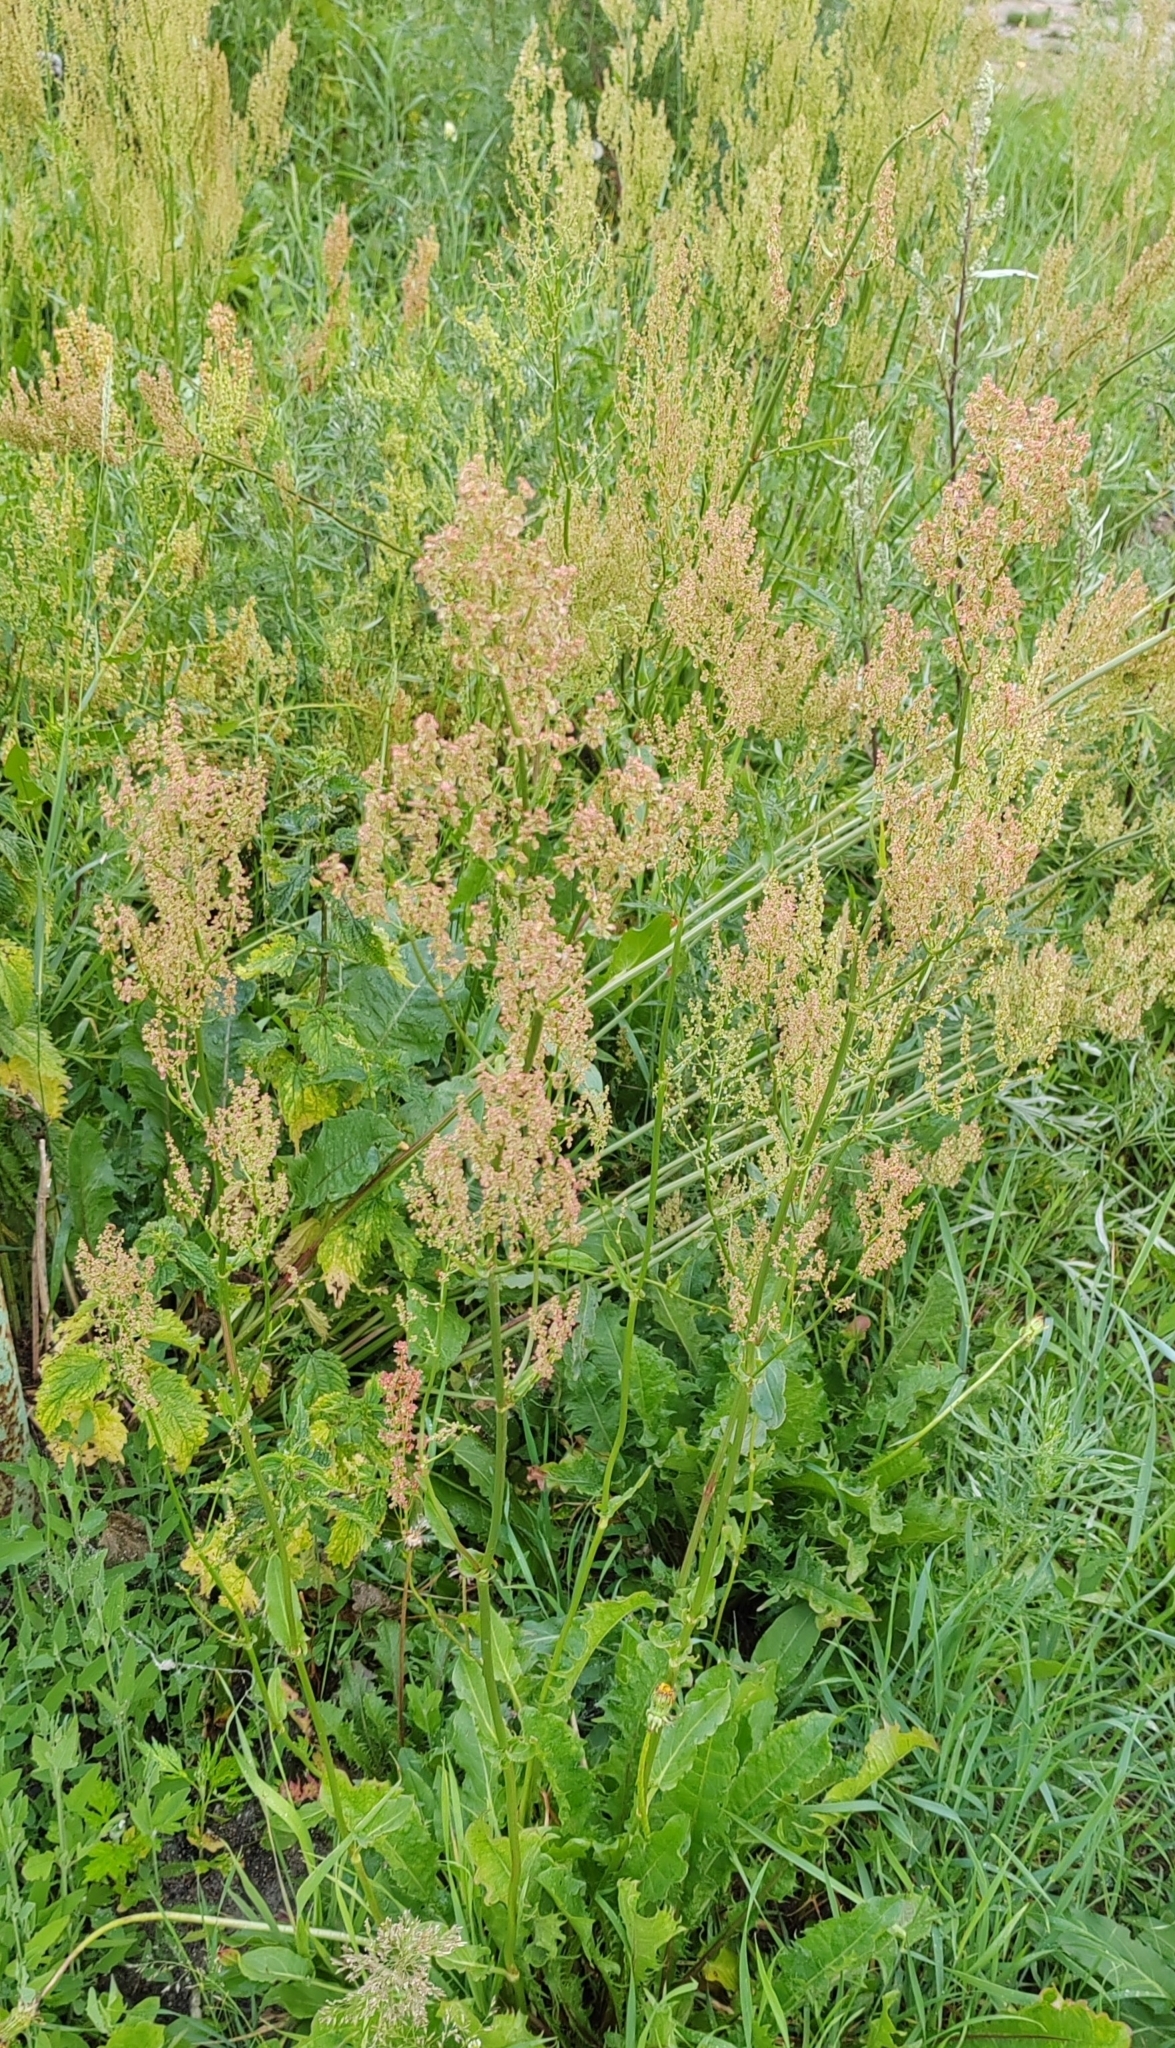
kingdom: Plantae
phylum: Tracheophyta
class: Magnoliopsida
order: Caryophyllales
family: Polygonaceae
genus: Rumex
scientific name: Rumex thyrsiflorus
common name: Garden sorrel
